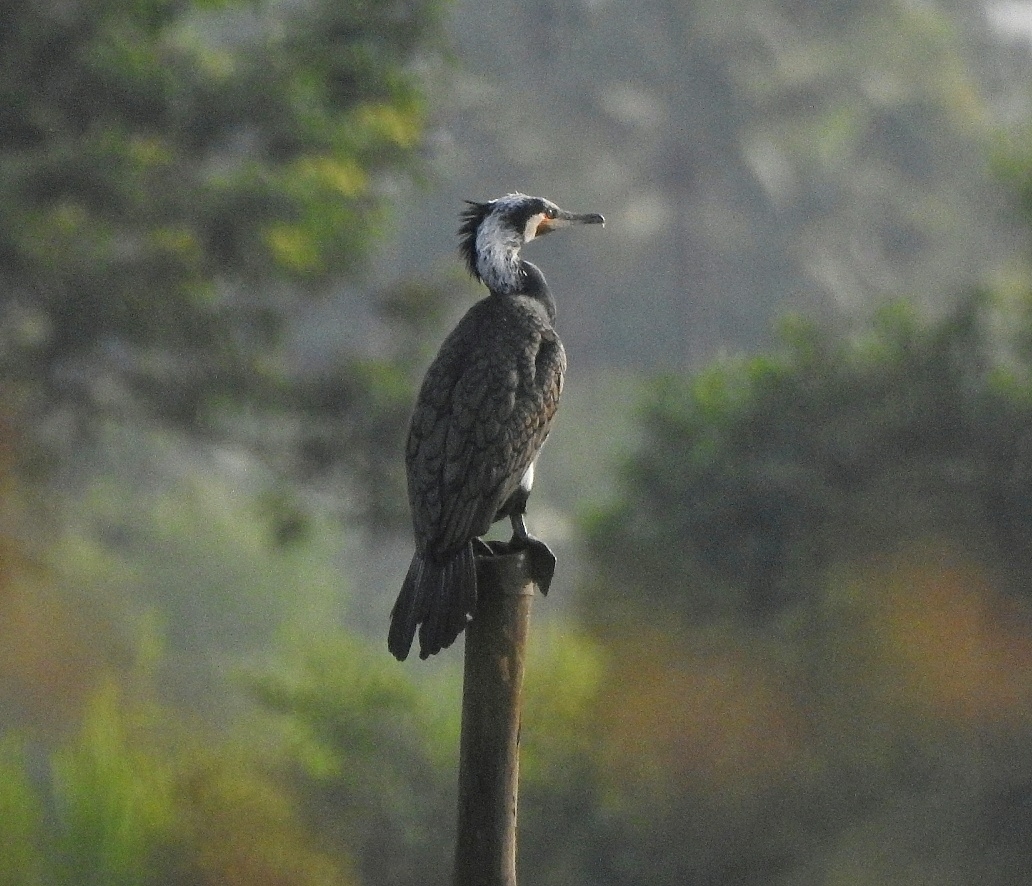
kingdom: Animalia
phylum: Chordata
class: Aves
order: Suliformes
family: Phalacrocoracidae
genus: Phalacrocorax
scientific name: Phalacrocorax carbo
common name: Great cormorant
